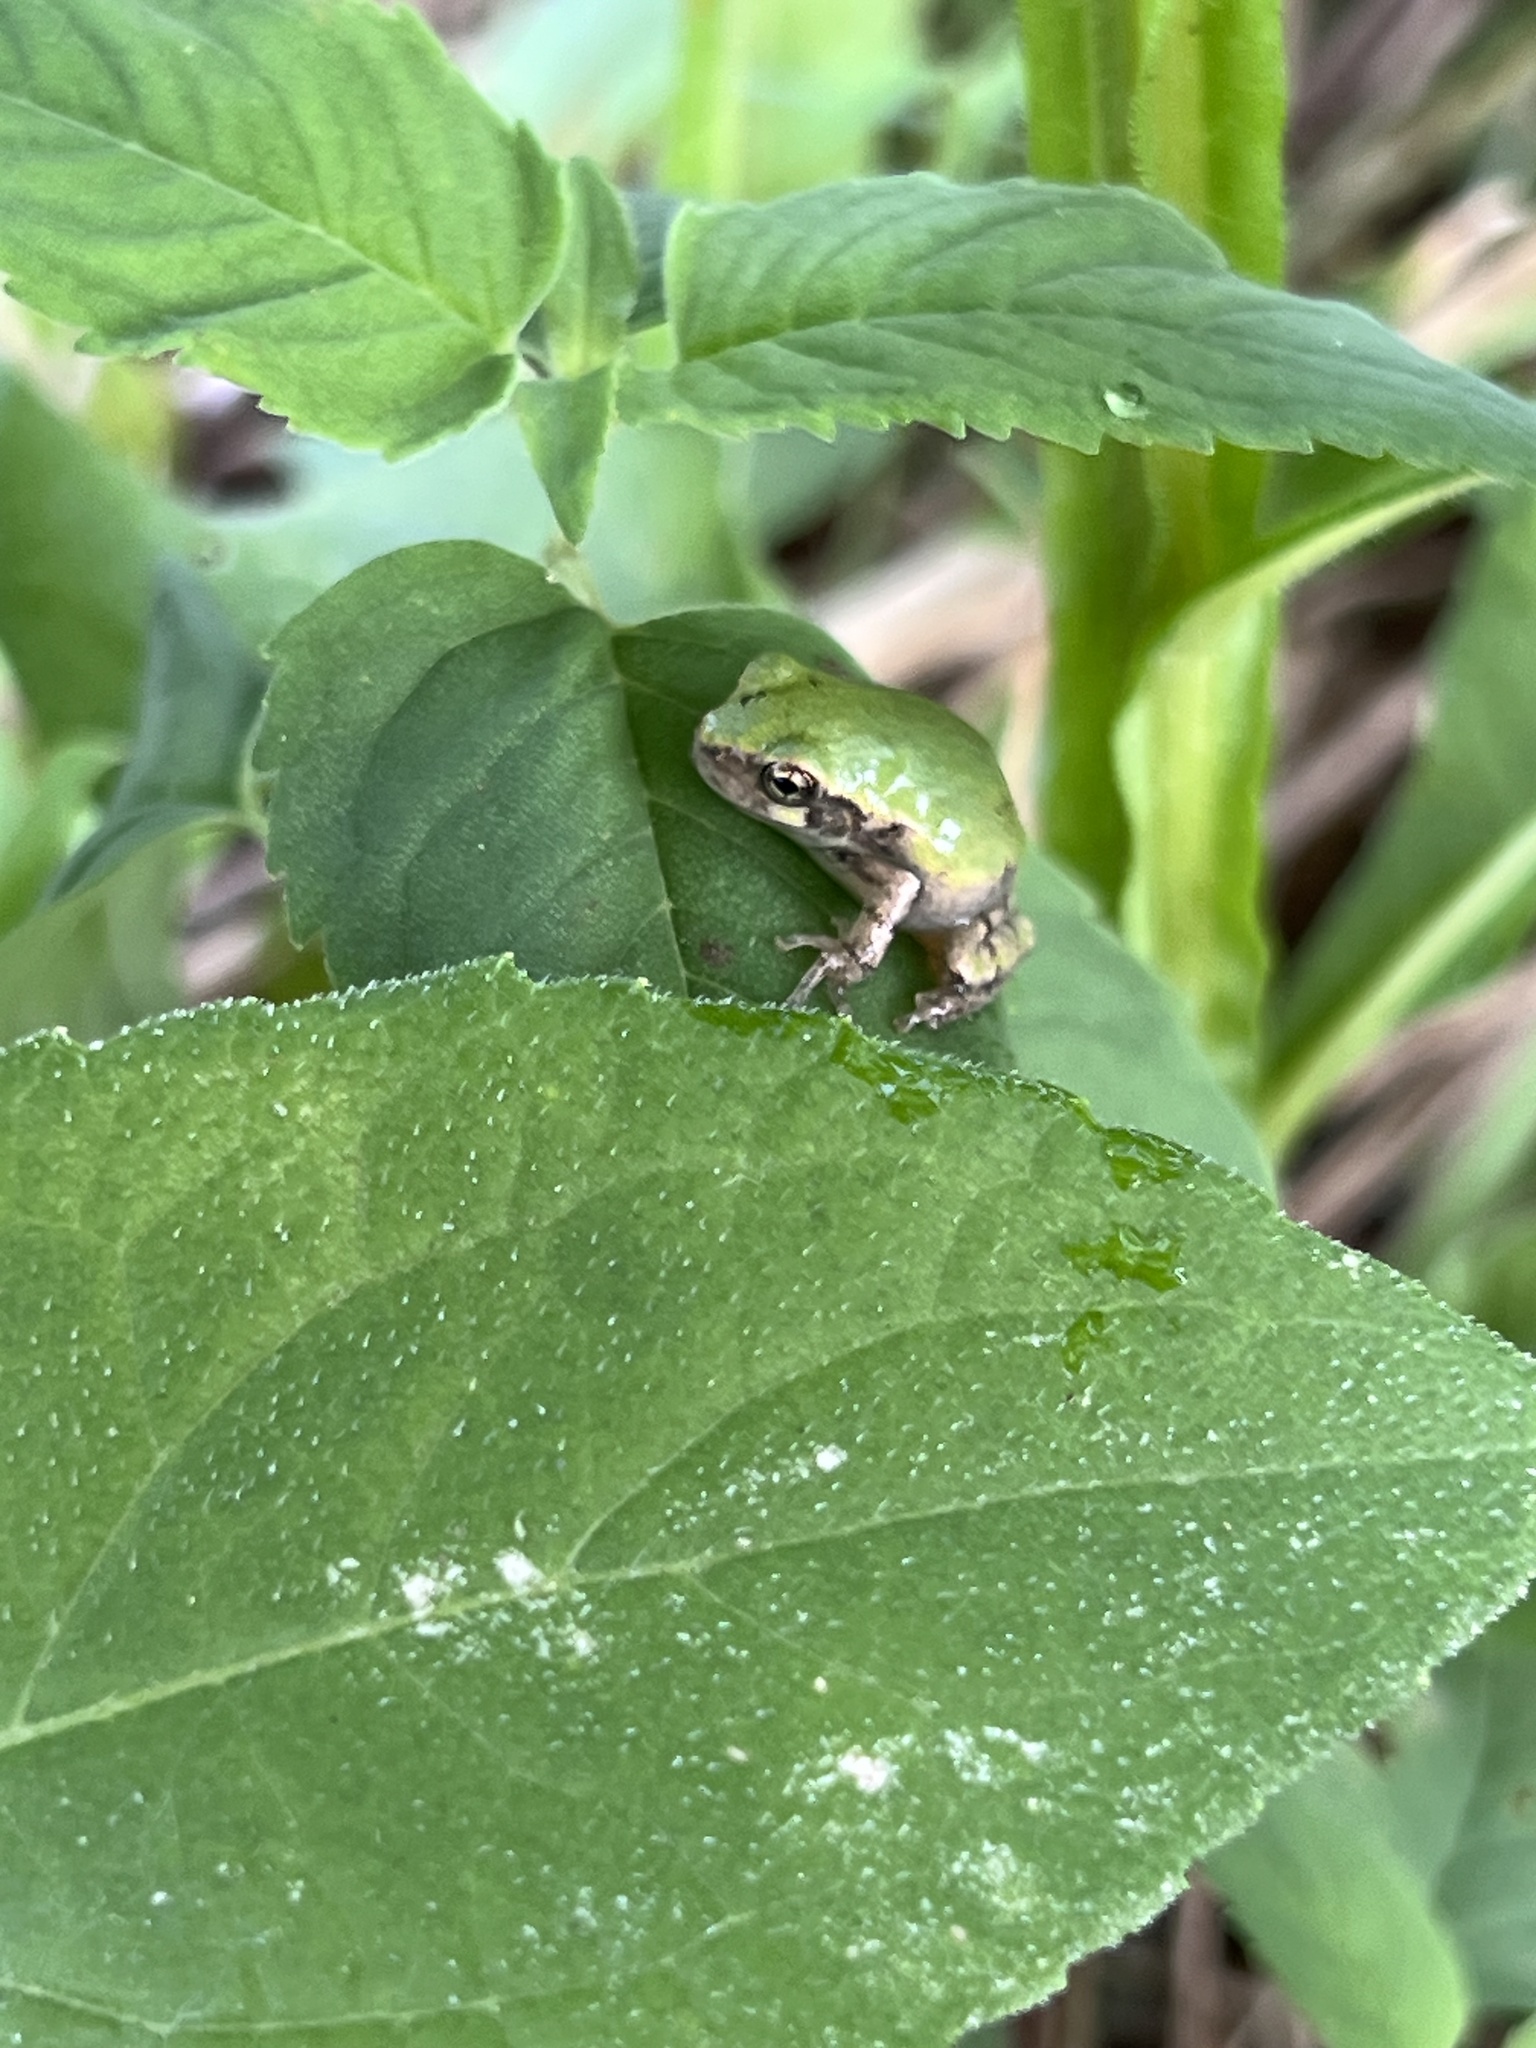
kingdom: Animalia
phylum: Chordata
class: Amphibia
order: Anura
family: Hylidae
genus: Hyla
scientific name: Hyla
